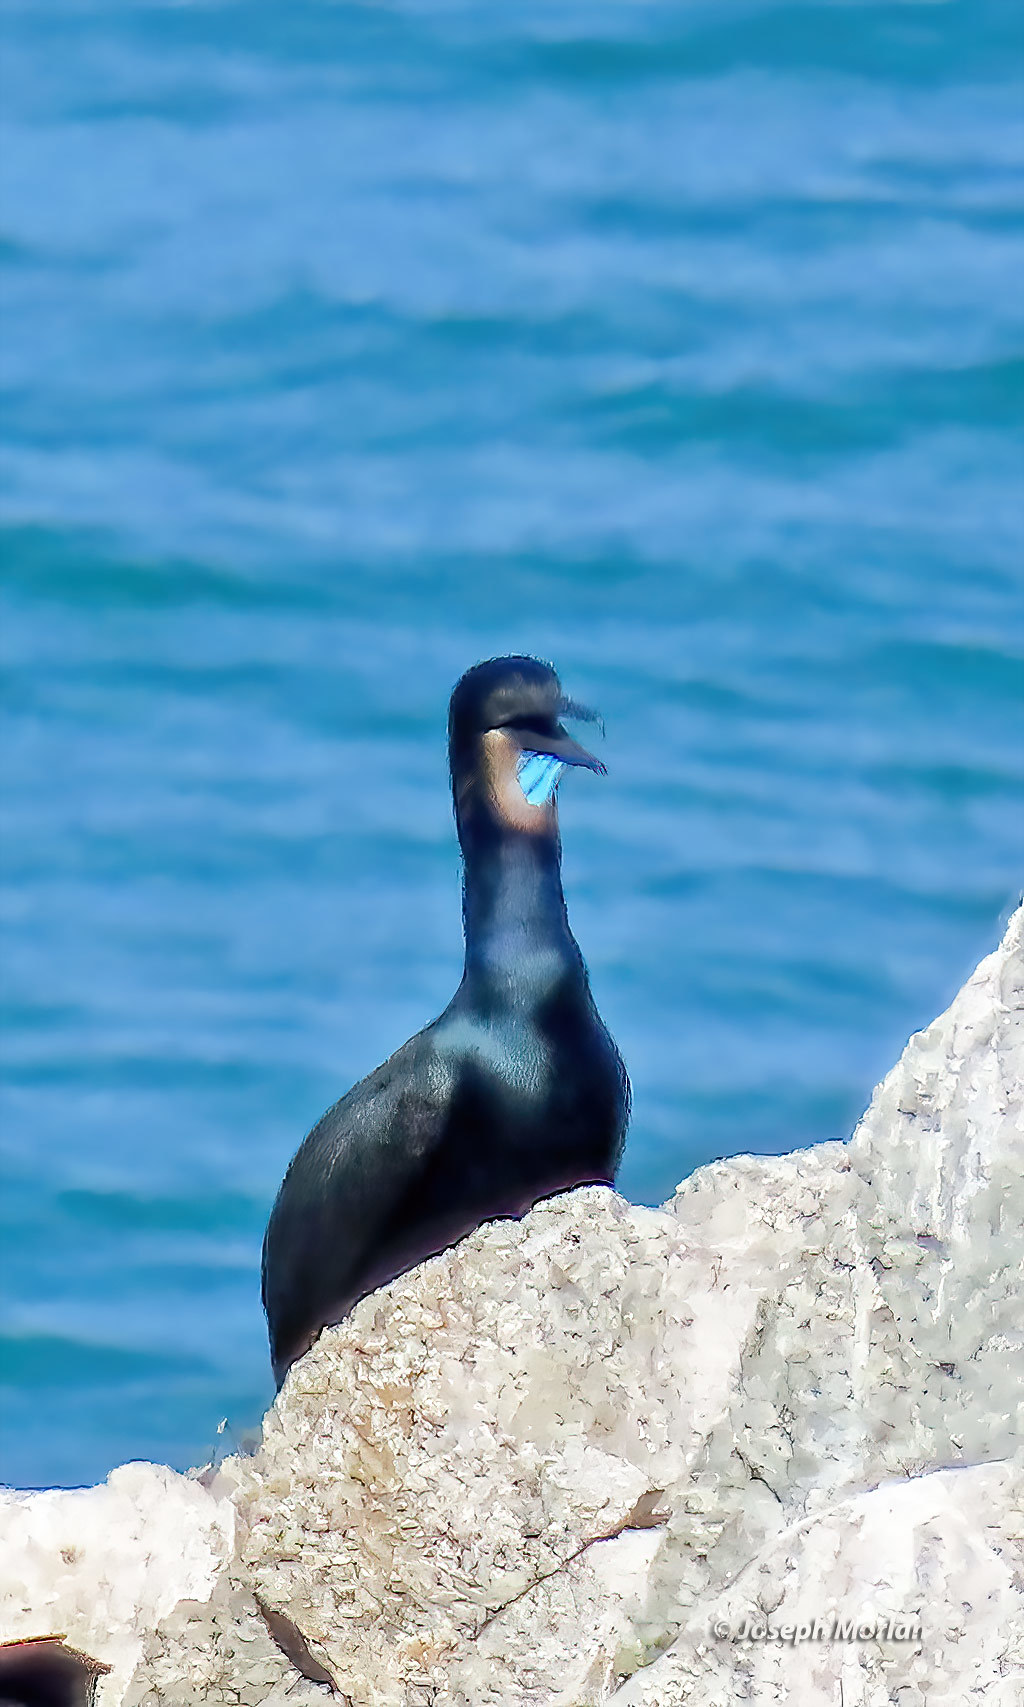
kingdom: Animalia
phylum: Chordata
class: Aves
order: Suliformes
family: Phalacrocoracidae
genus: Urile
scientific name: Urile penicillatus
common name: Brandt's cormorant
